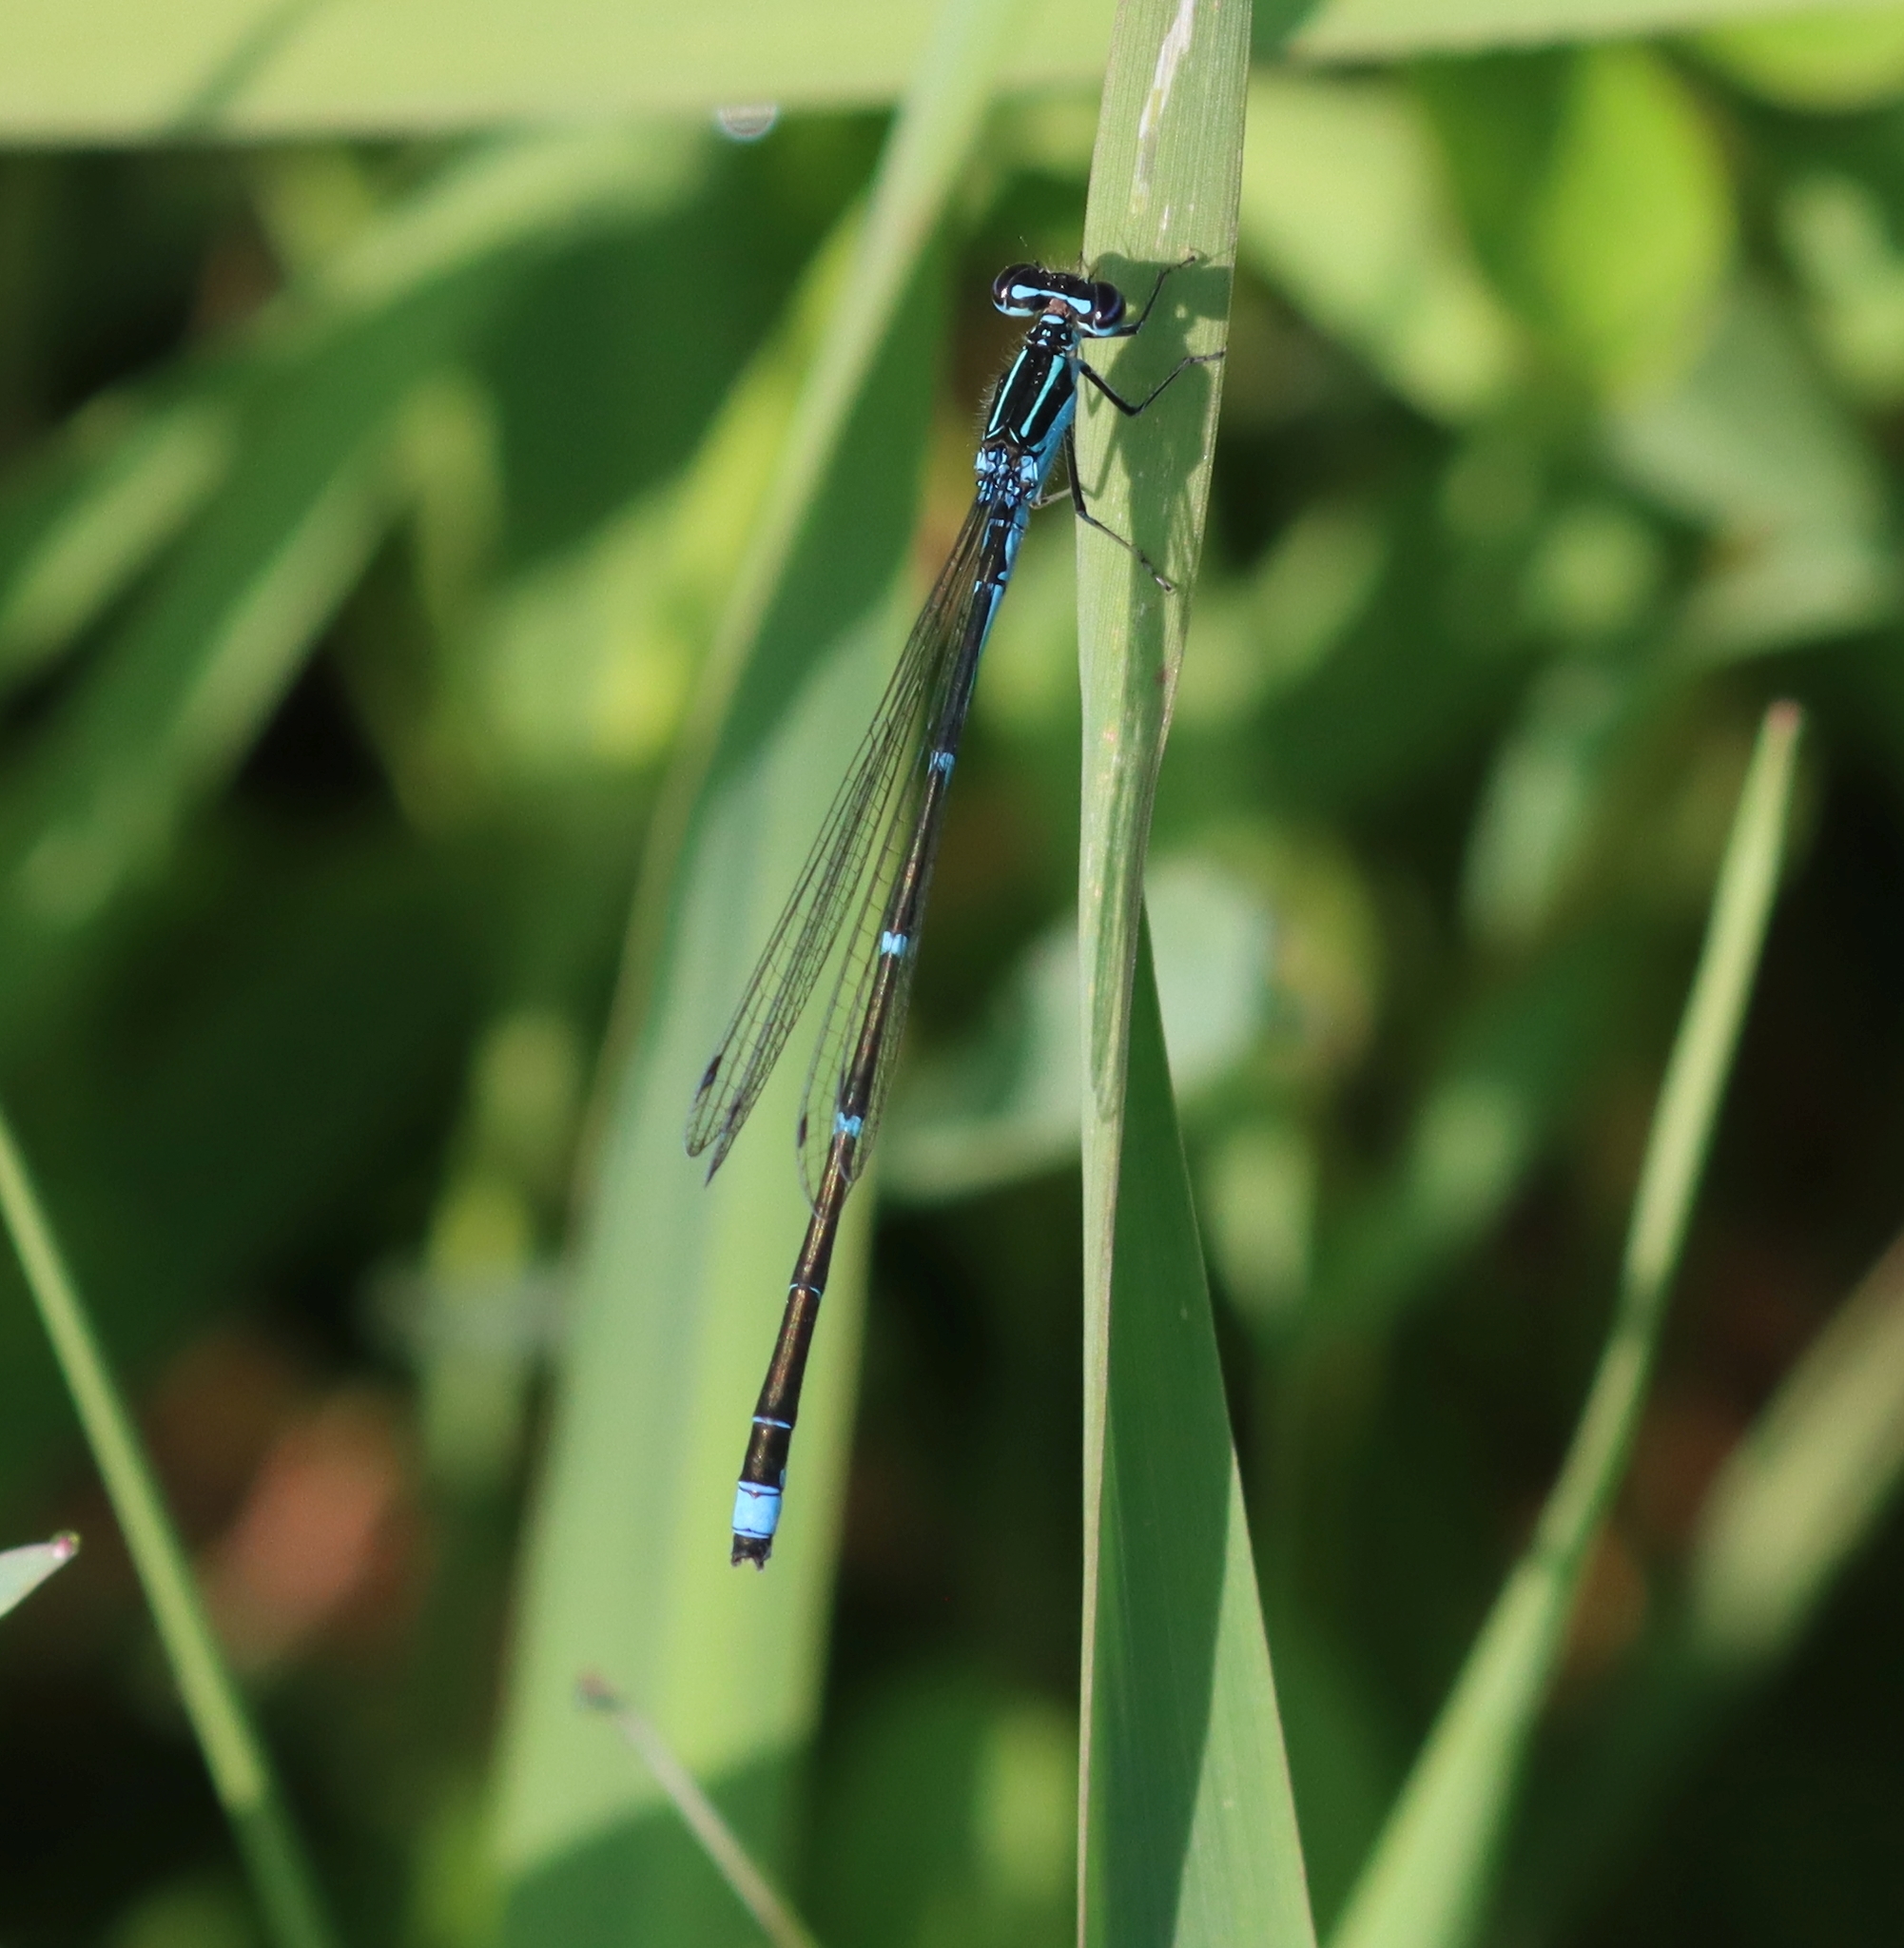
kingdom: Animalia
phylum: Arthropoda
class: Insecta
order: Odonata
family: Coenagrionidae
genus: Enallagma
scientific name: Enallagma exsulans
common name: Stream bluet
